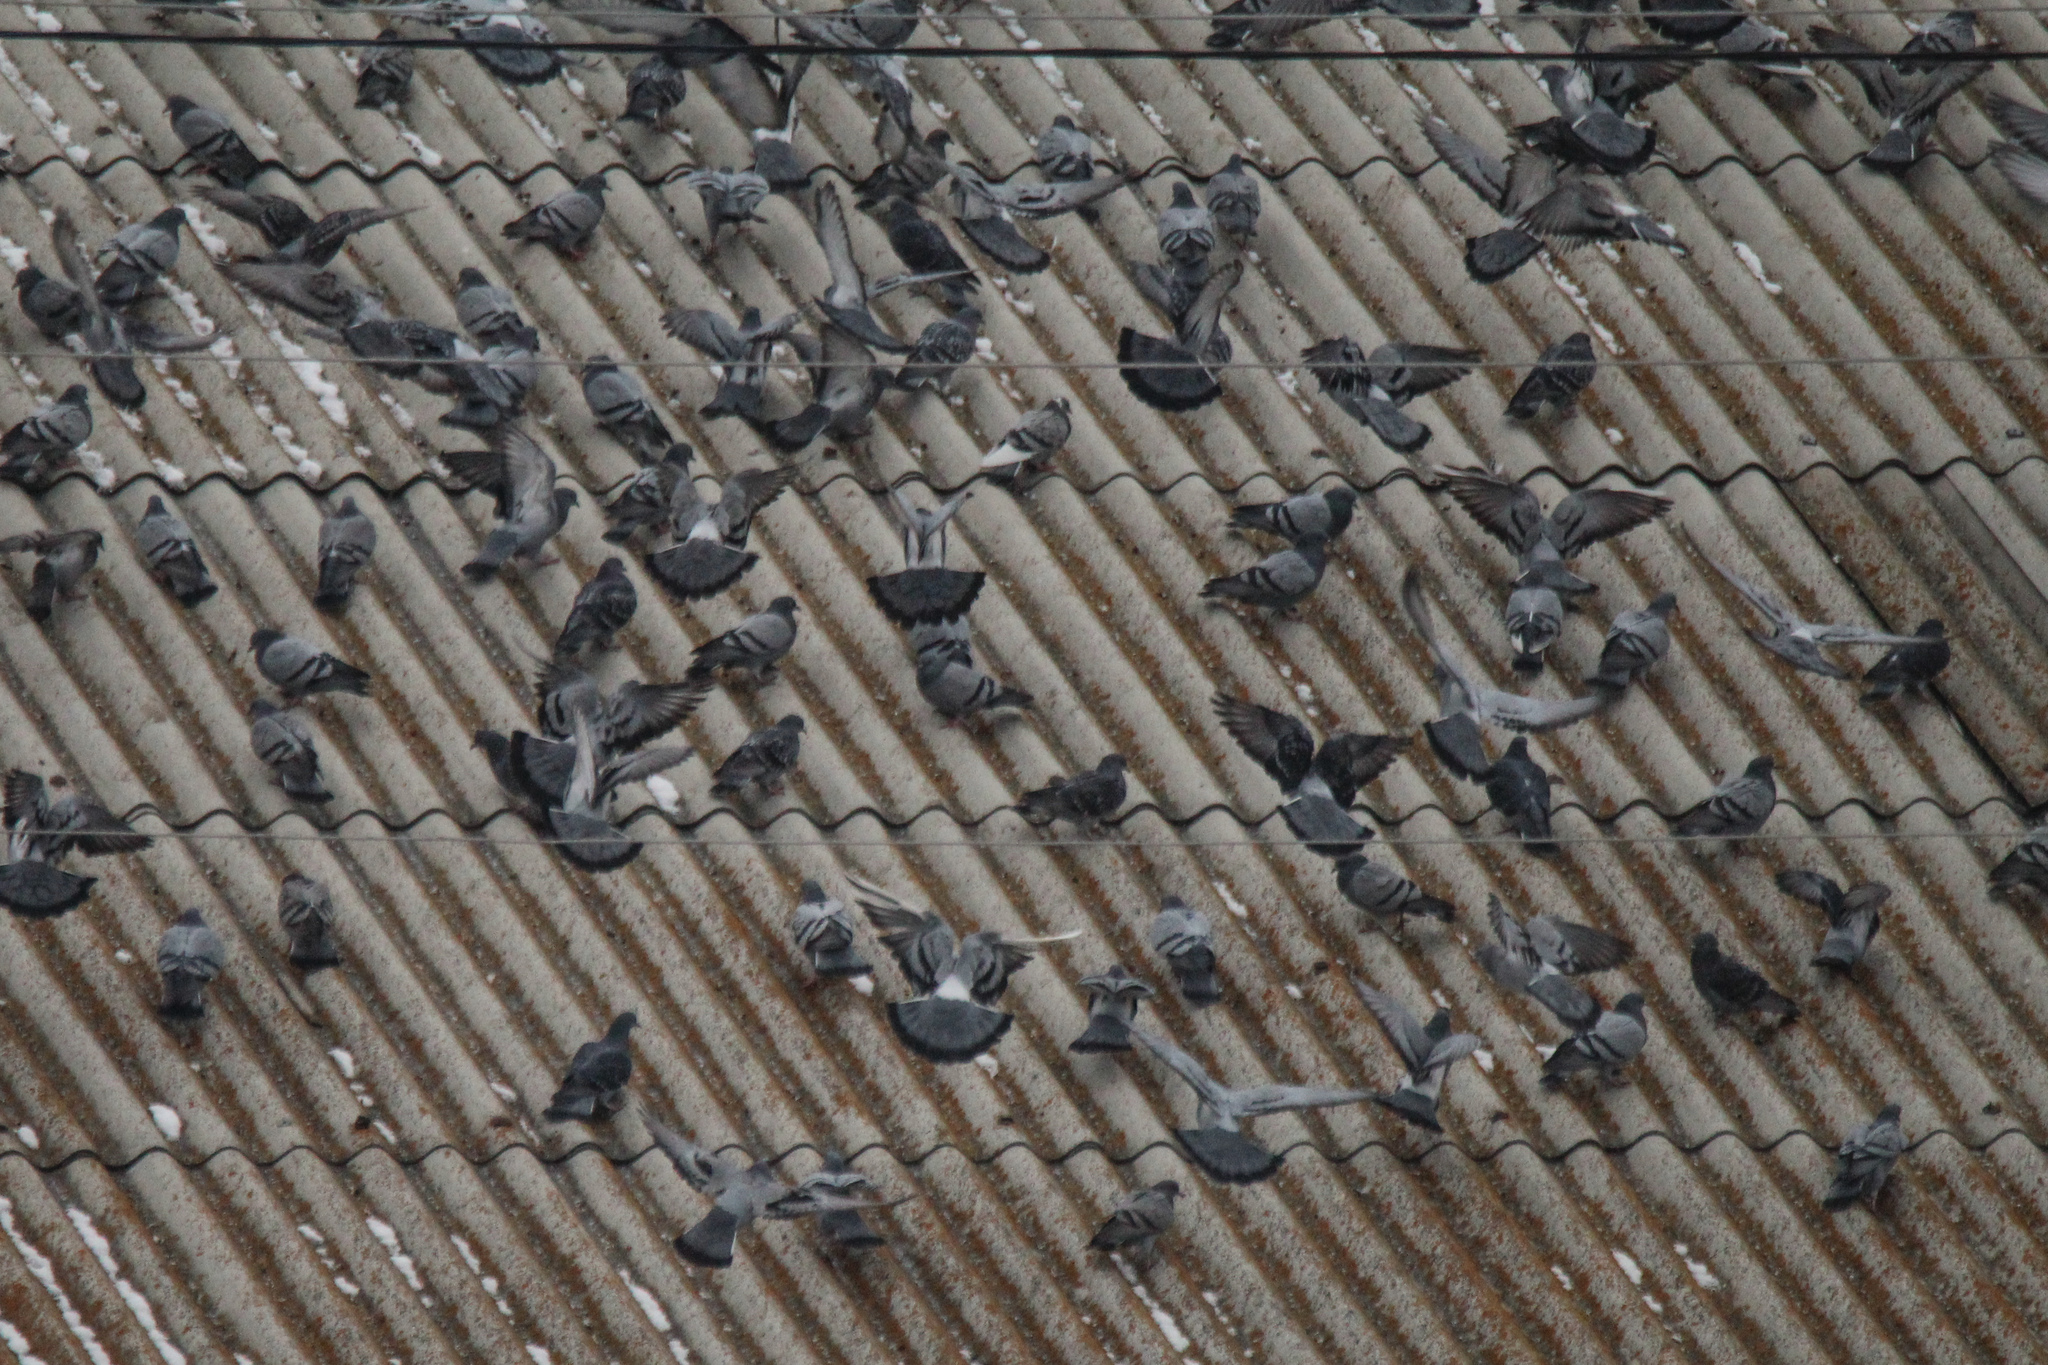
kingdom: Animalia
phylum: Chordata
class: Aves
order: Columbiformes
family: Columbidae
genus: Columba
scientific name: Columba livia
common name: Rock pigeon
